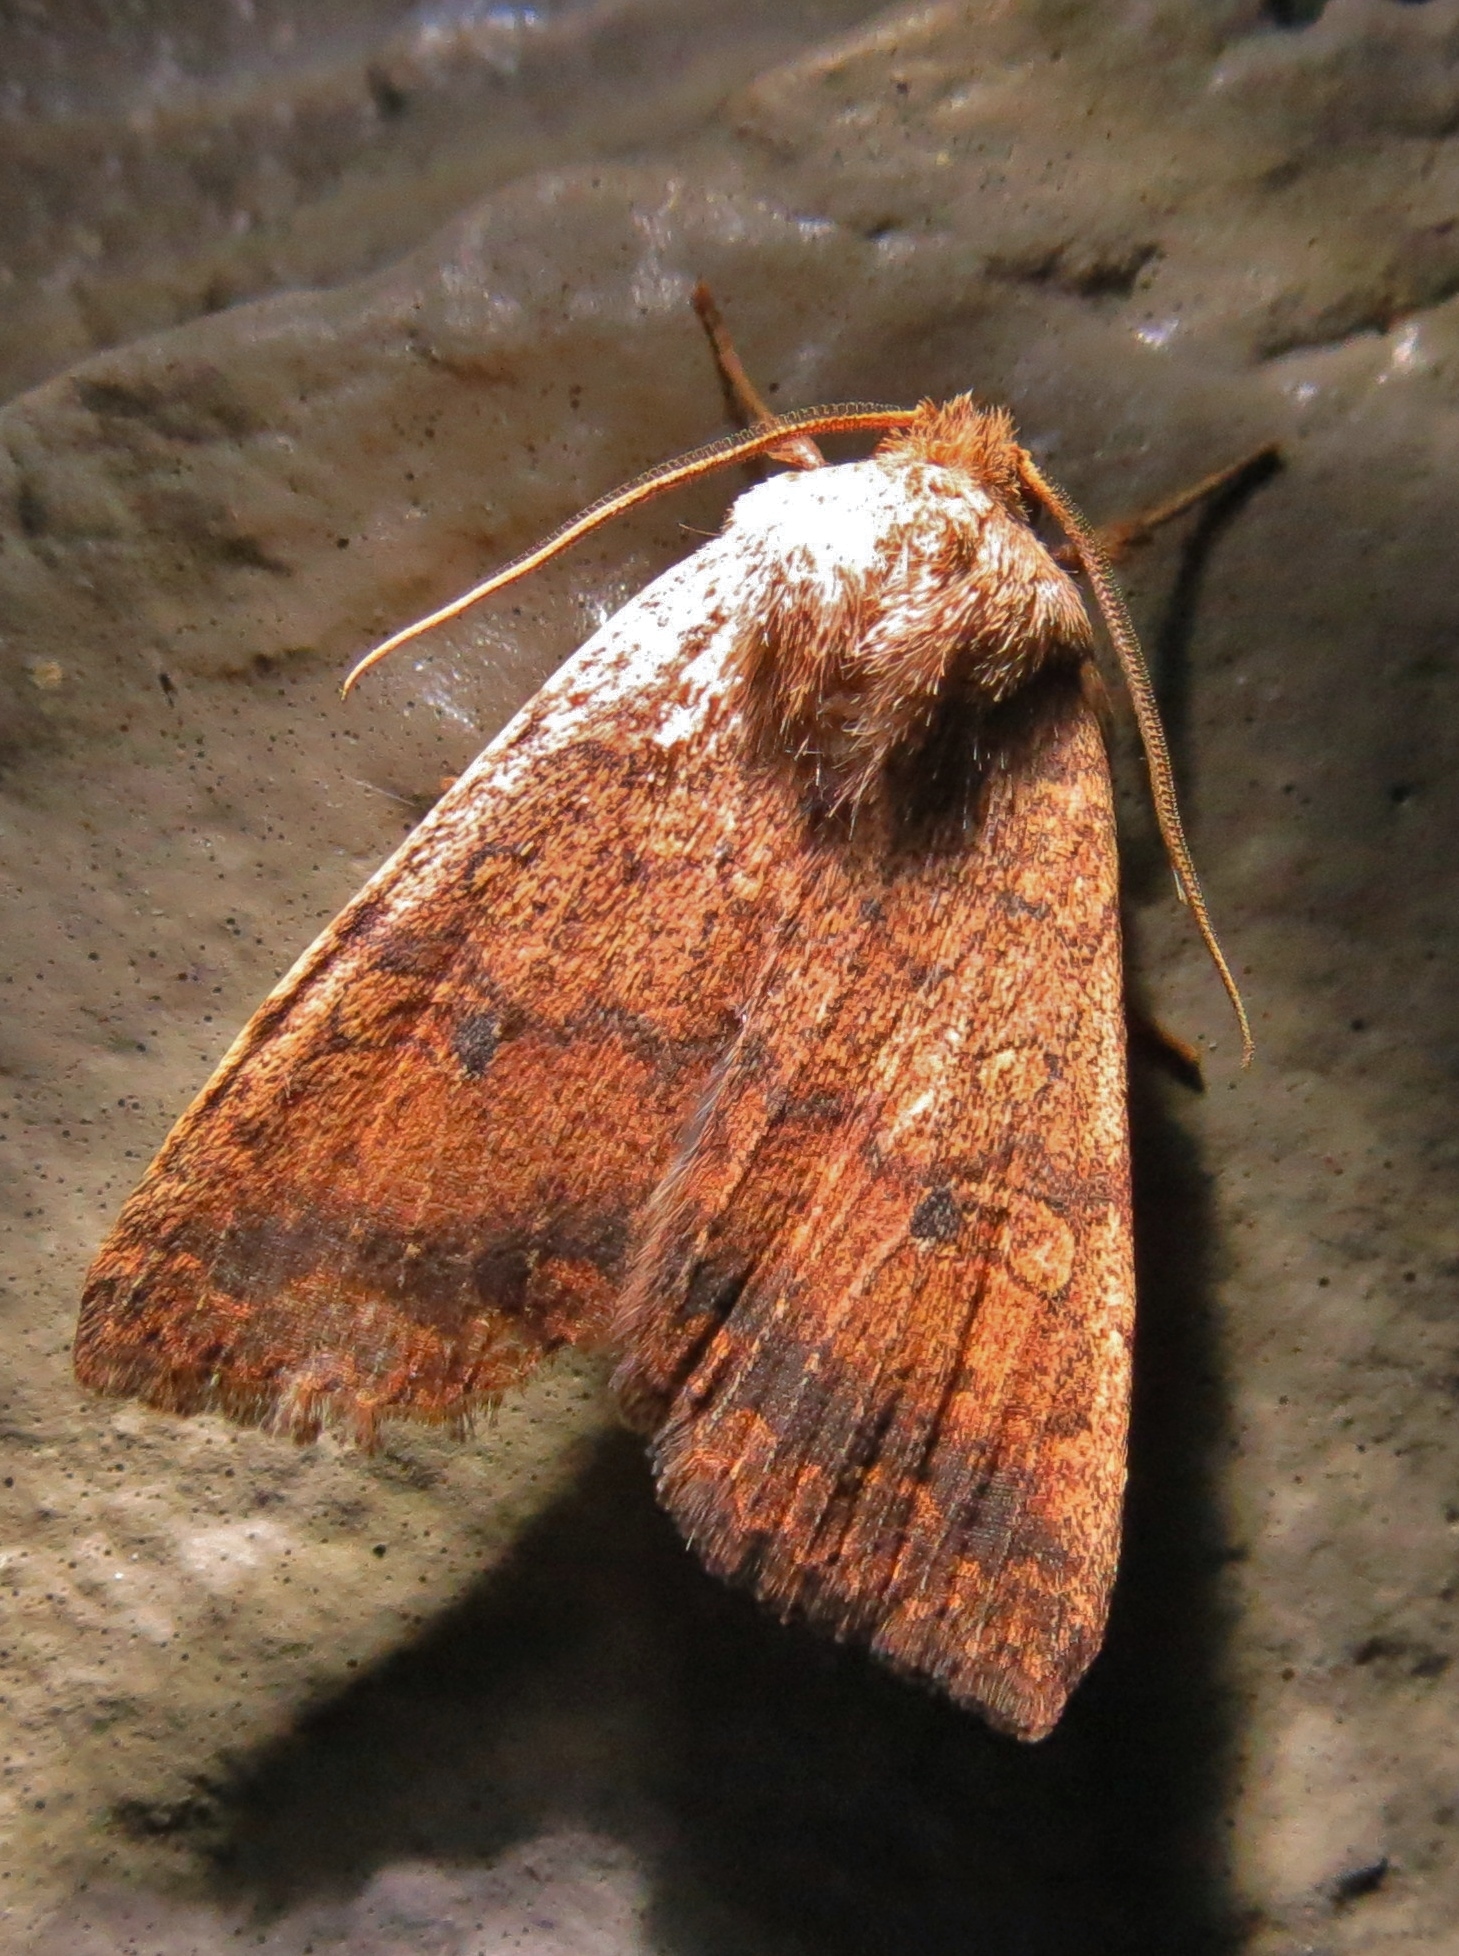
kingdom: Animalia
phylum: Arthropoda
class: Insecta
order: Lepidoptera
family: Noctuidae
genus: Agrochola
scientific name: Agrochola bicolorago
